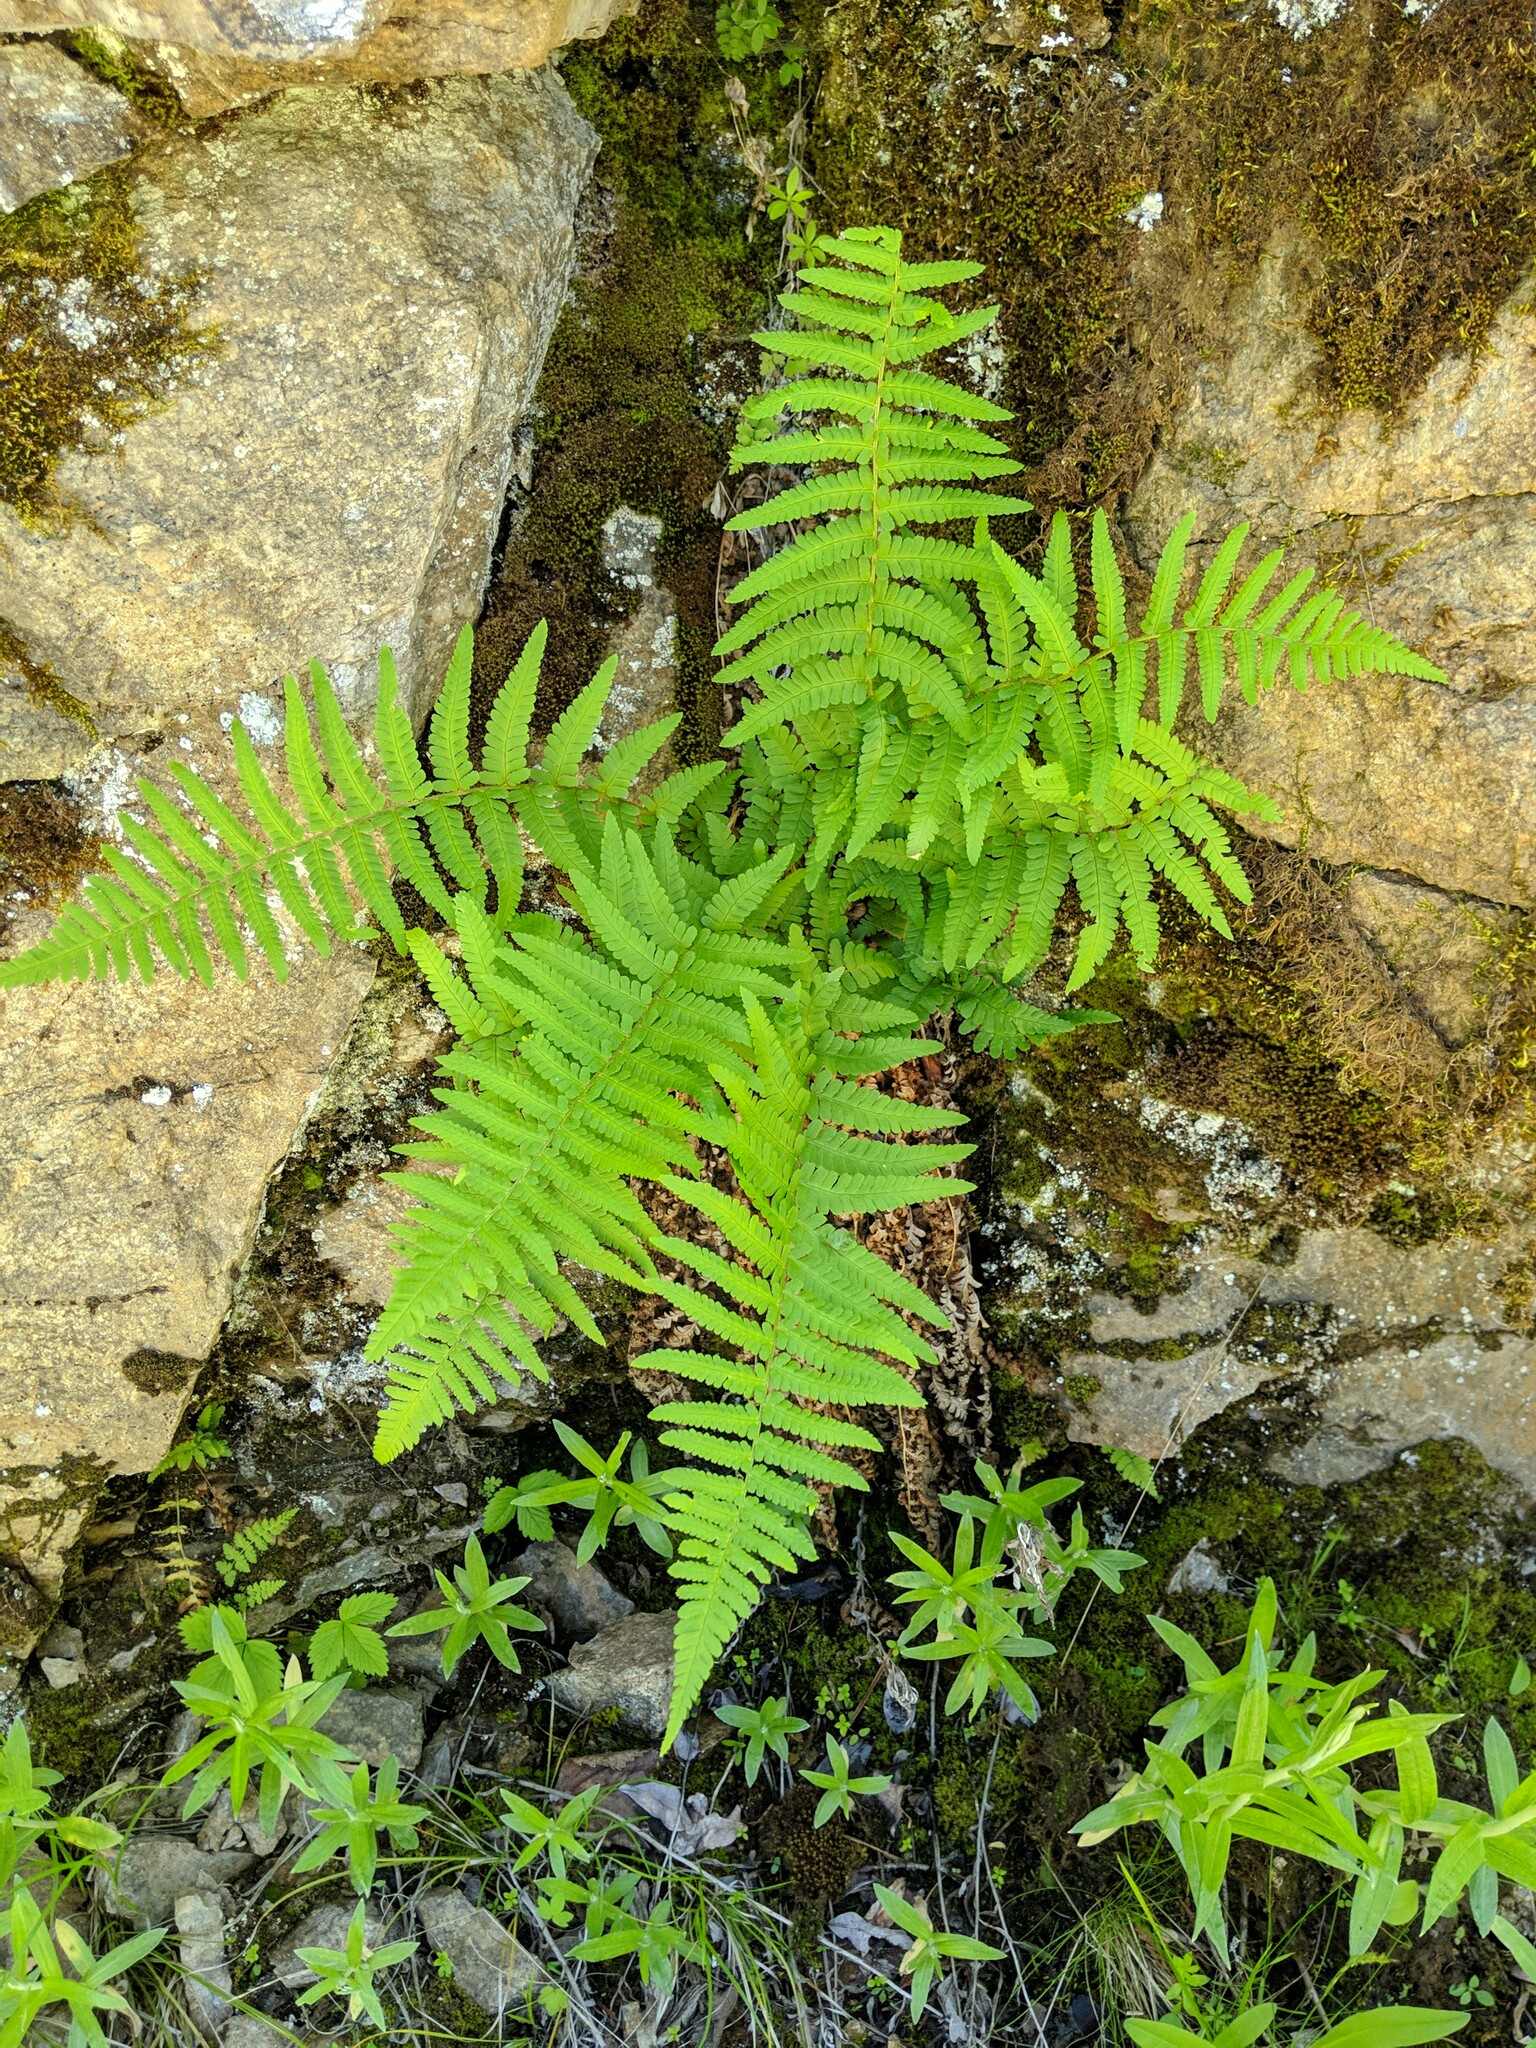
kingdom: Plantae
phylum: Tracheophyta
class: Polypodiopsida
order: Polypodiales
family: Dryopteridaceae
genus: Dryopteris
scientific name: Dryopteris filix-mas
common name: Male fern
